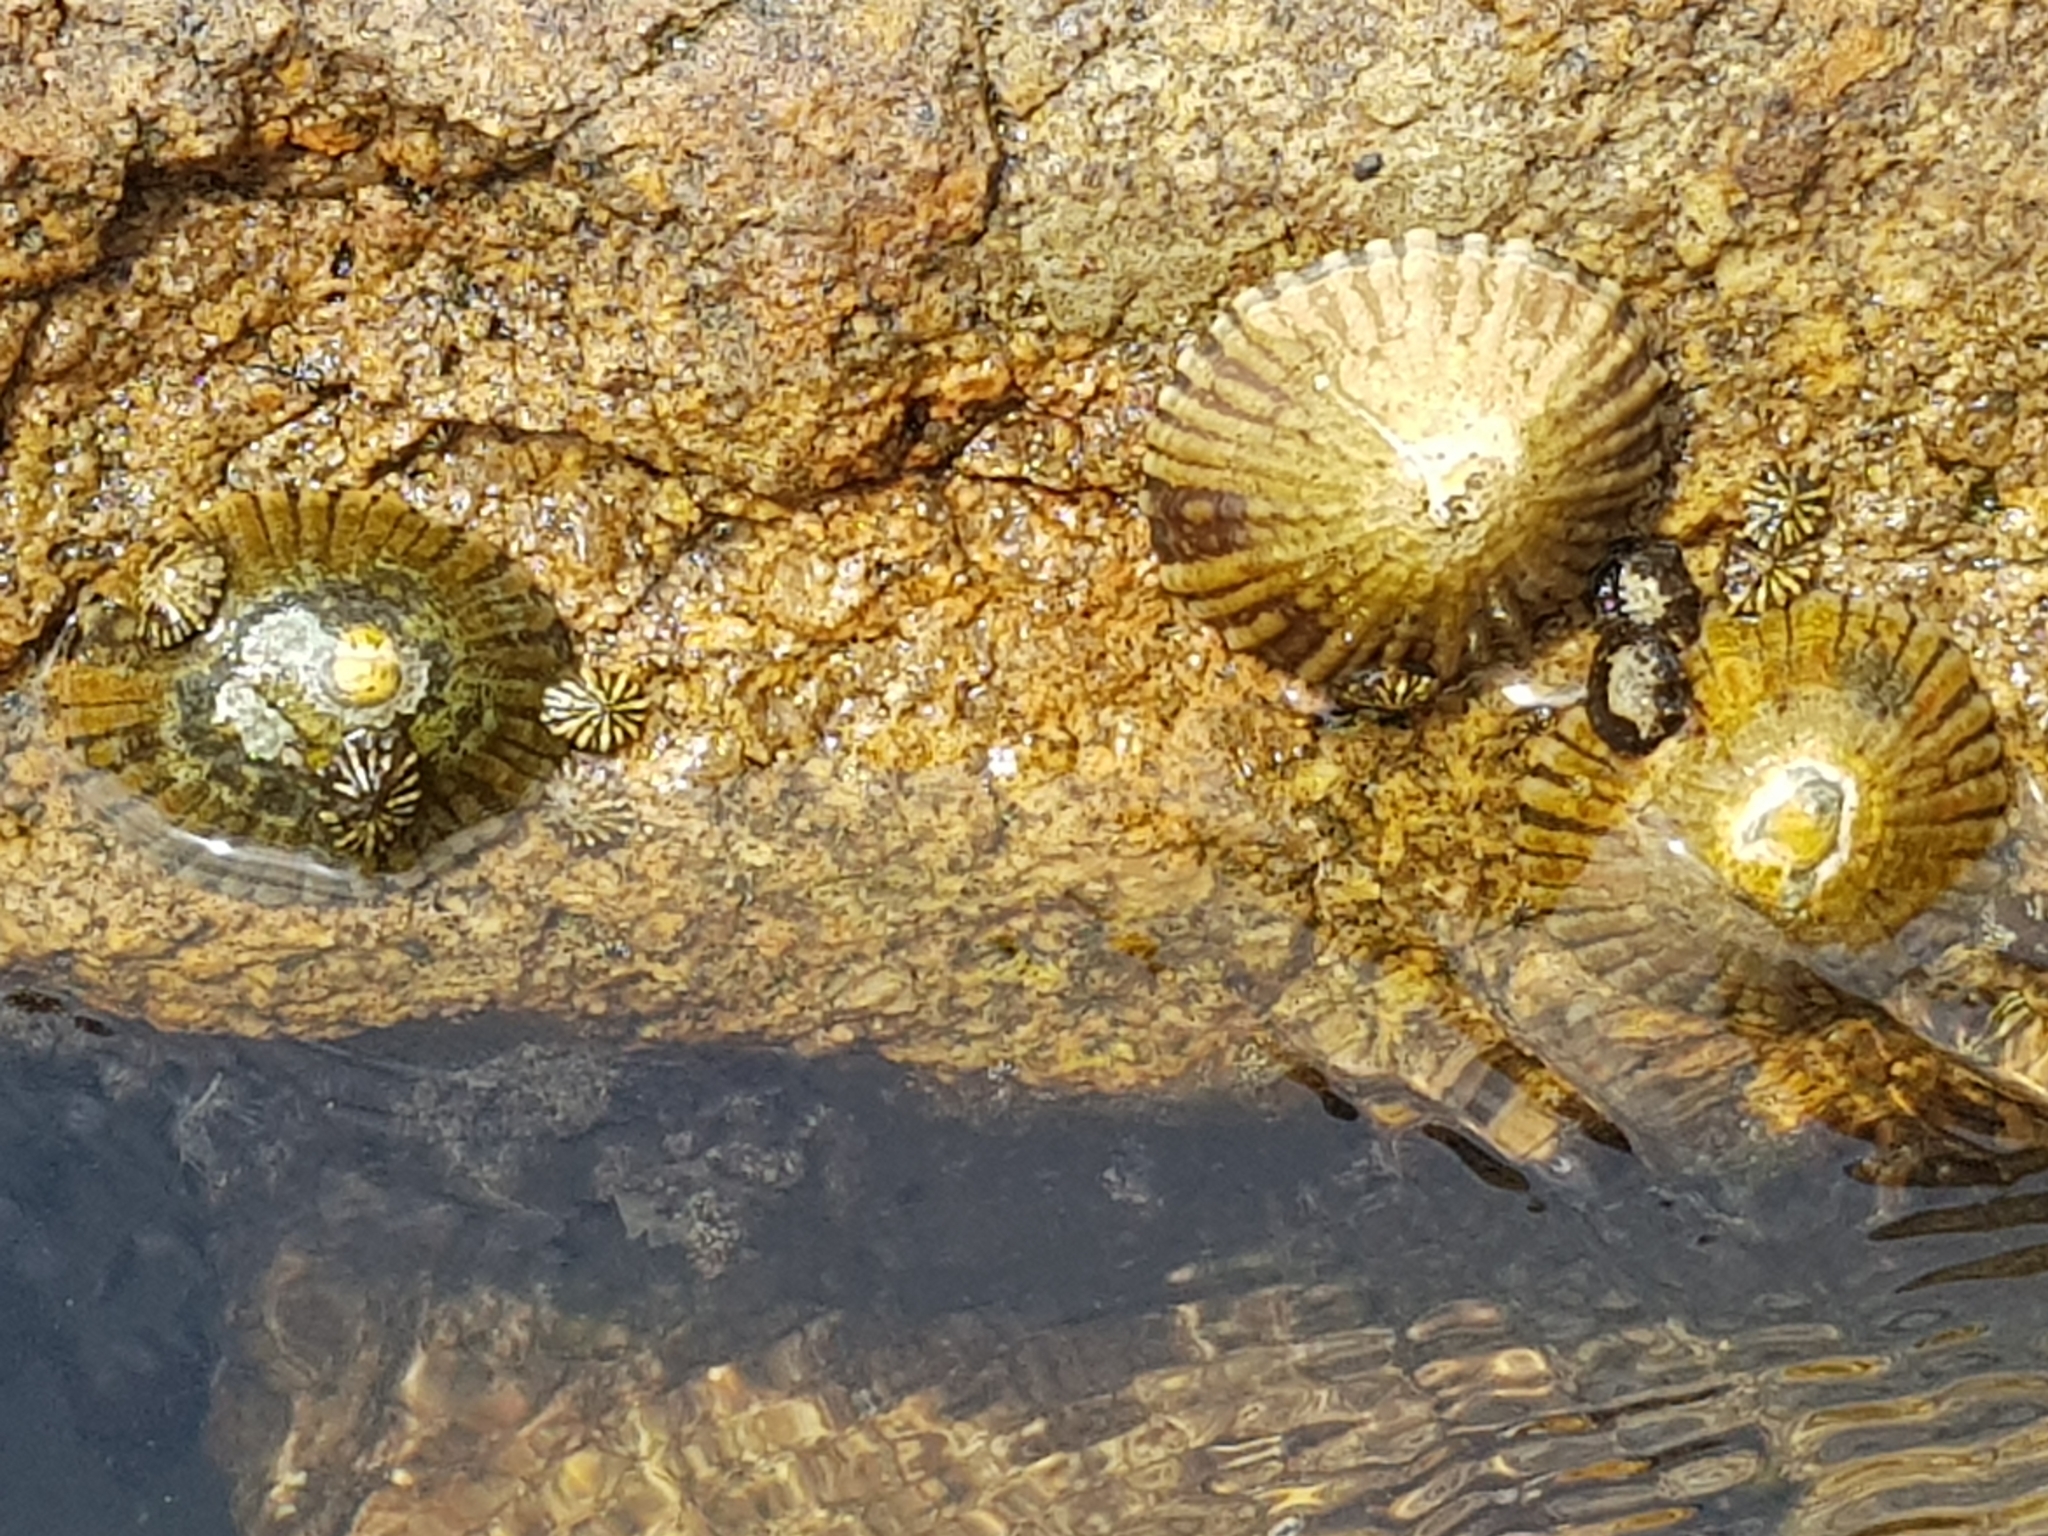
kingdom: Animalia
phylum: Mollusca
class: Gastropoda
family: Nacellidae
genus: Cellana
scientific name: Cellana tramoserica
